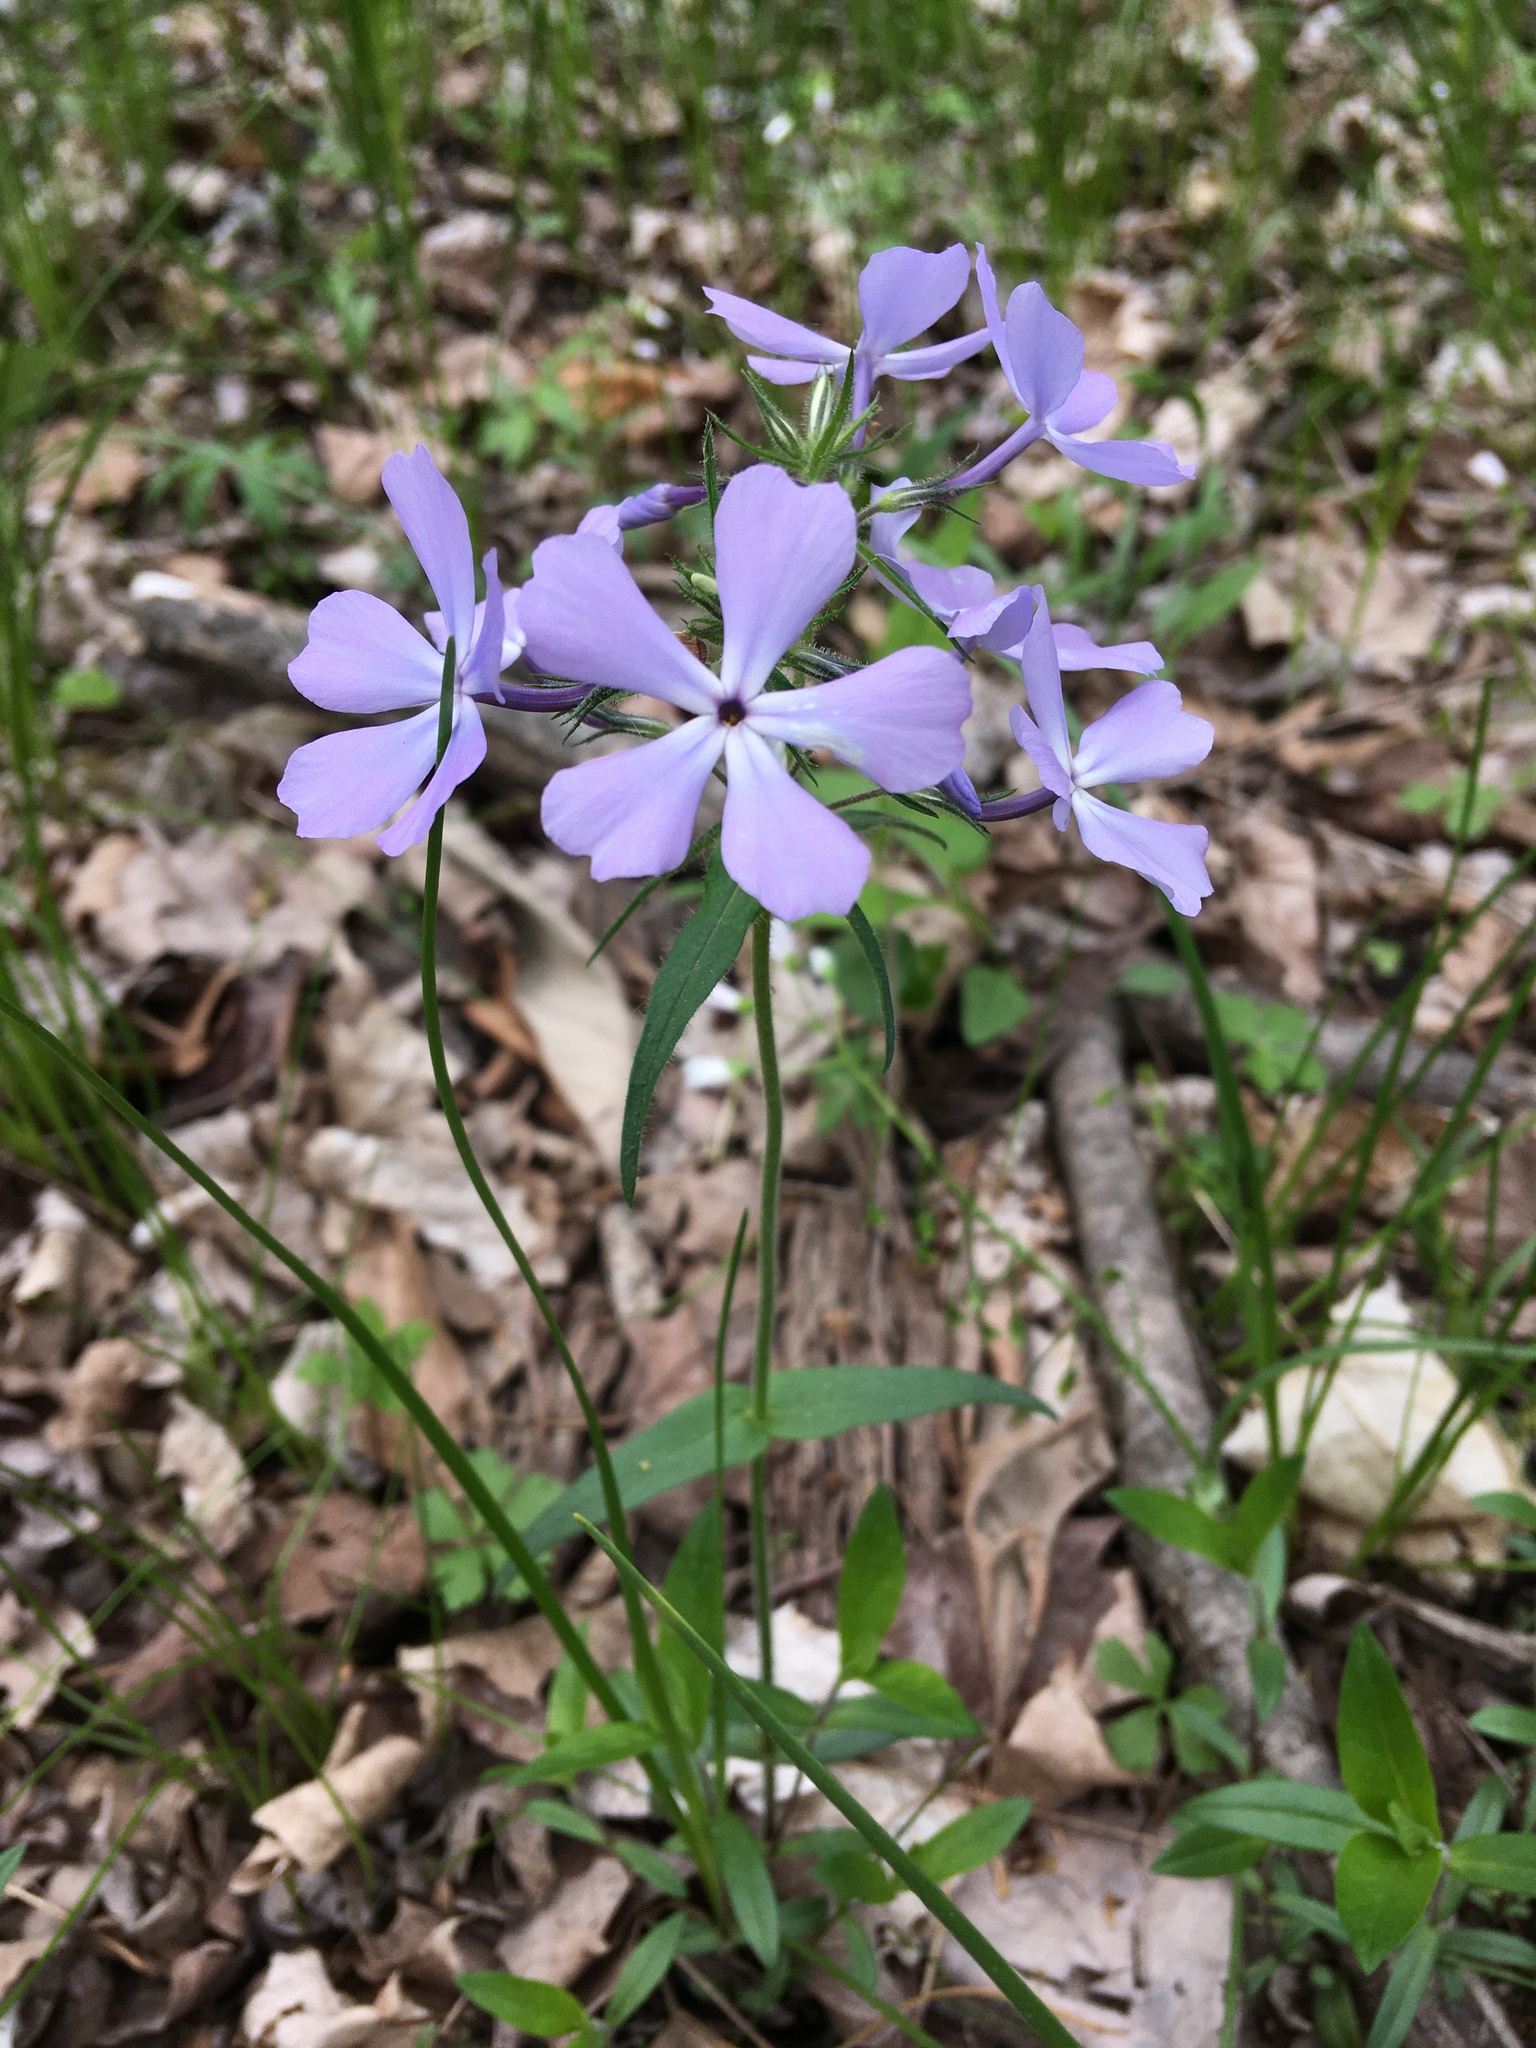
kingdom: Plantae
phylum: Tracheophyta
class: Magnoliopsida
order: Ericales
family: Polemoniaceae
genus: Phlox
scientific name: Phlox divaricata
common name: Blue phlox
